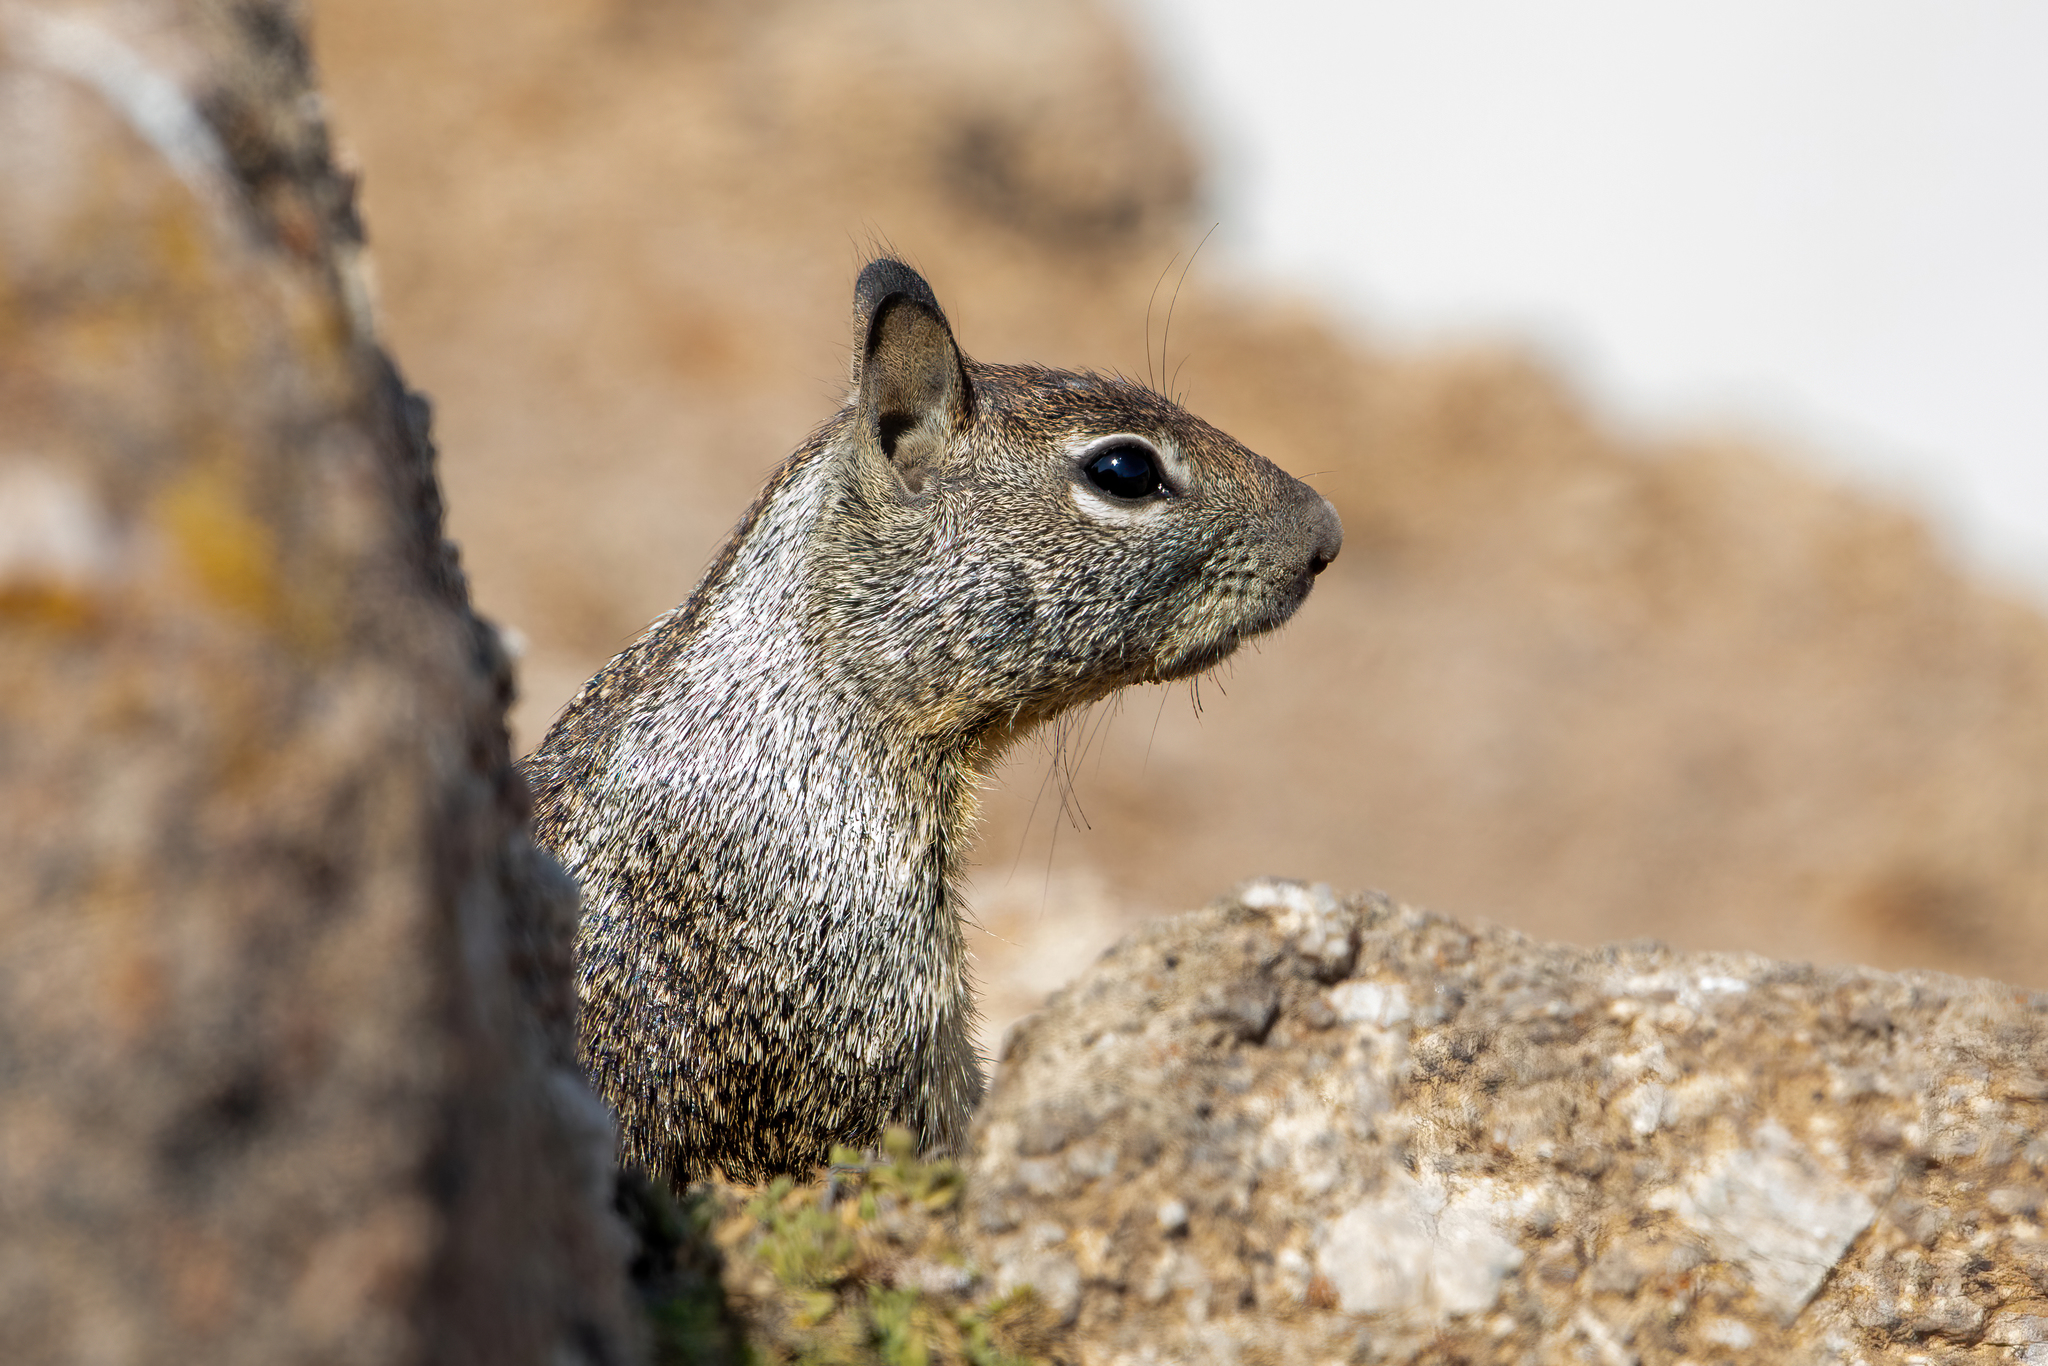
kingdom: Animalia
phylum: Chordata
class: Mammalia
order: Rodentia
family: Sciuridae
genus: Otospermophilus
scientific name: Otospermophilus beecheyi
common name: California ground squirrel
